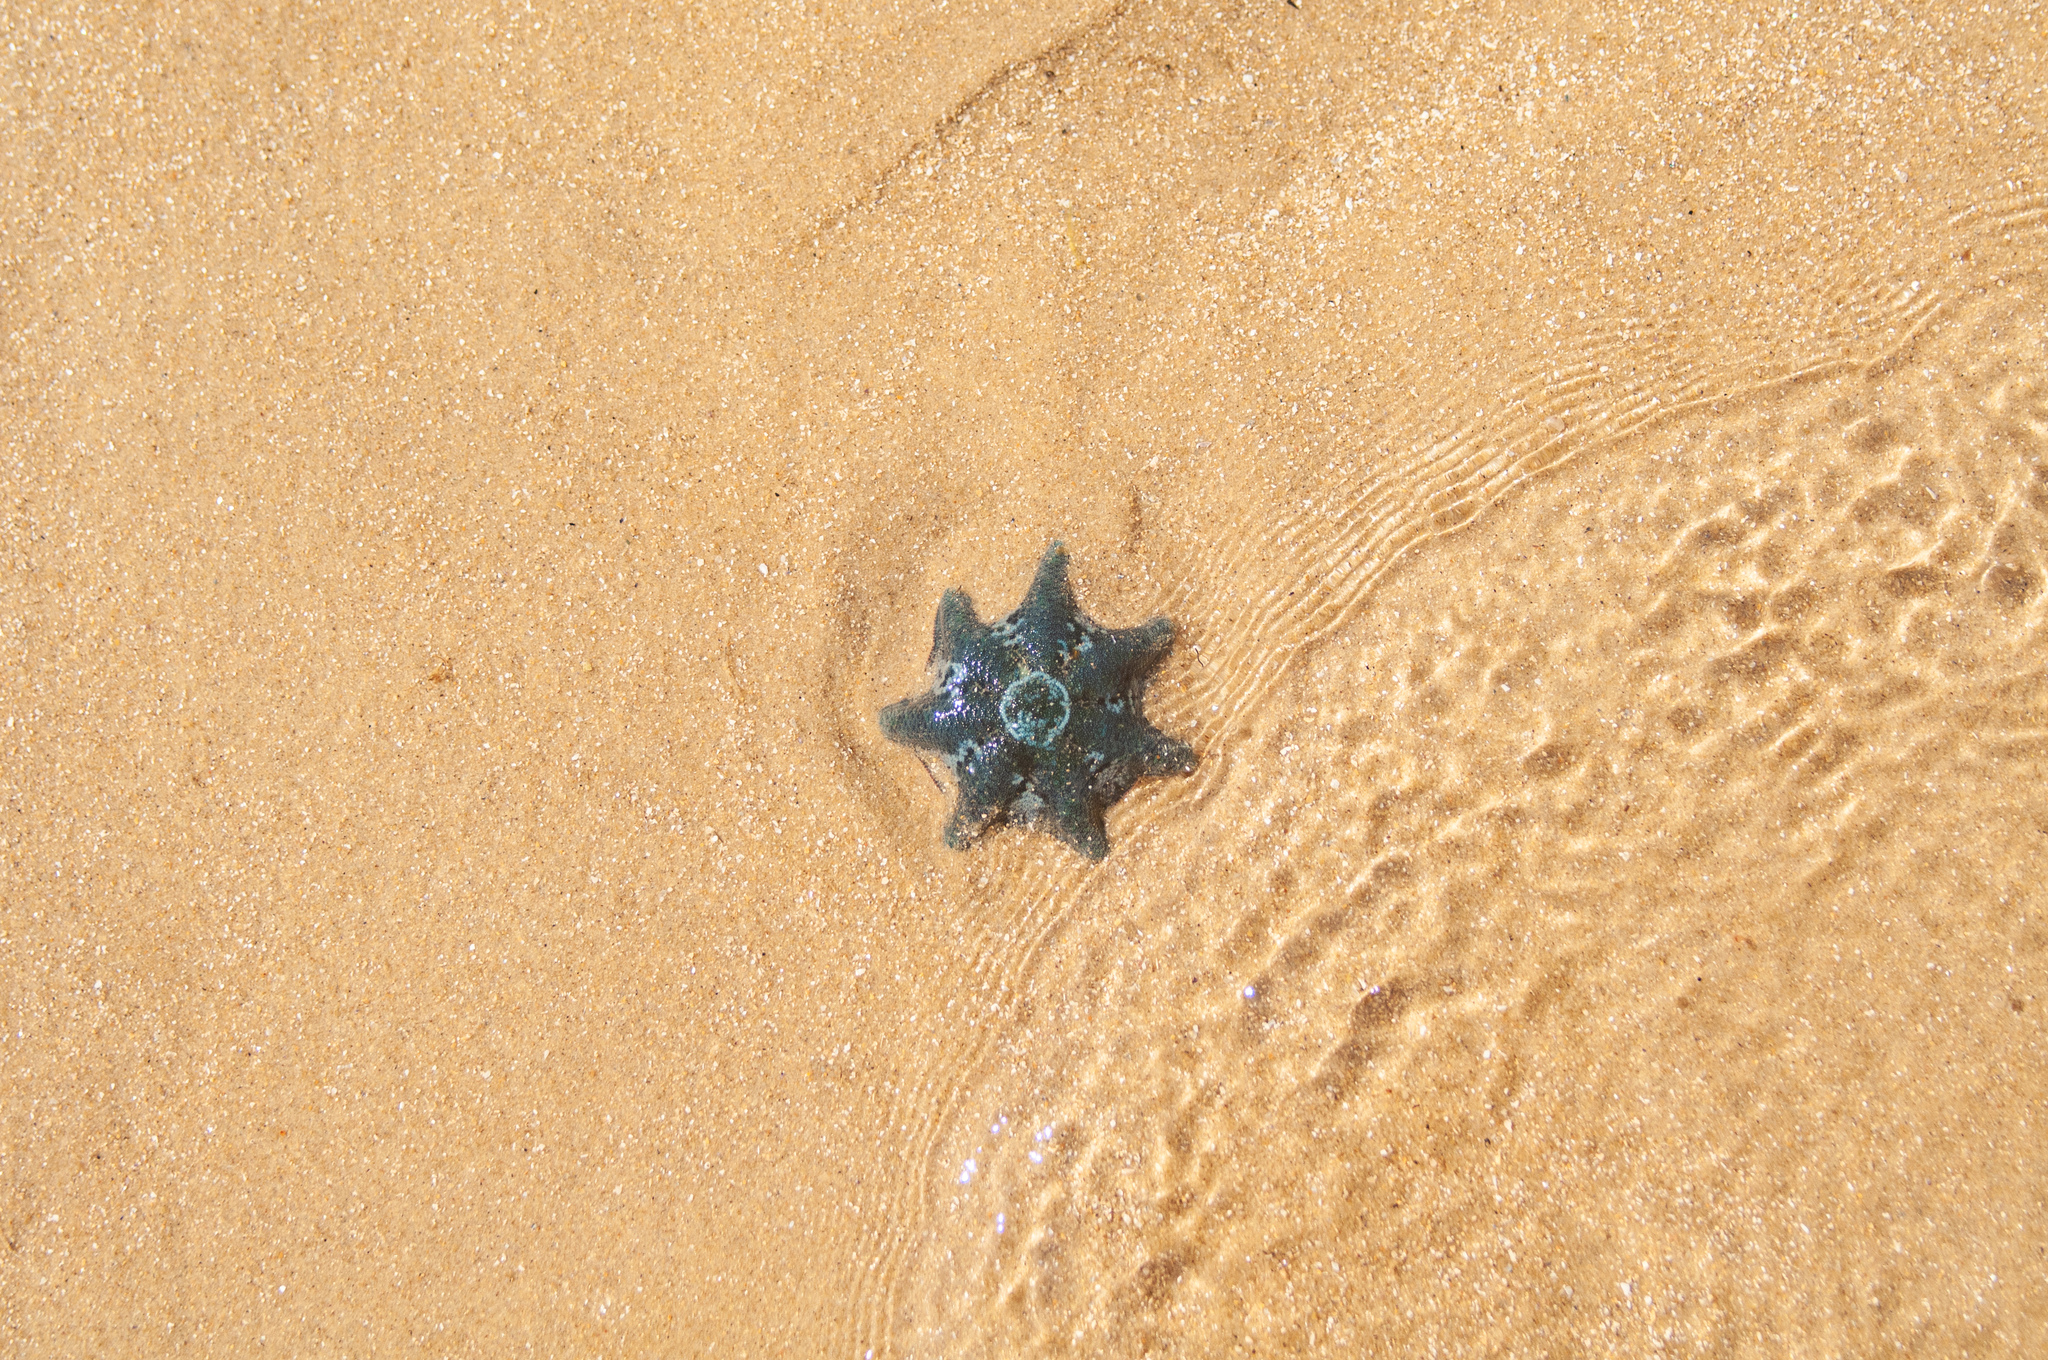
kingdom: Animalia
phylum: Echinodermata
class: Asteroidea
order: Valvatida
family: Asterinidae
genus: Meridiastra
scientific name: Meridiastra calcar
